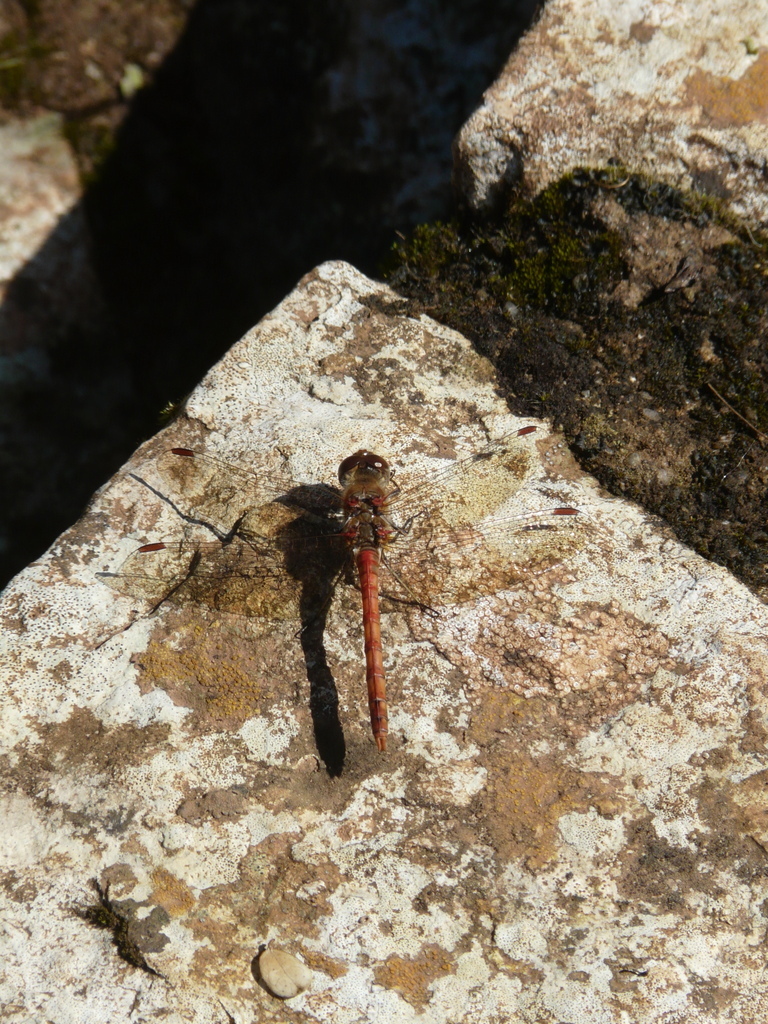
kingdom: Animalia
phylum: Arthropoda
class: Insecta
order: Odonata
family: Libellulidae
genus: Sympetrum
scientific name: Sympetrum striolatum
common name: Common darter
